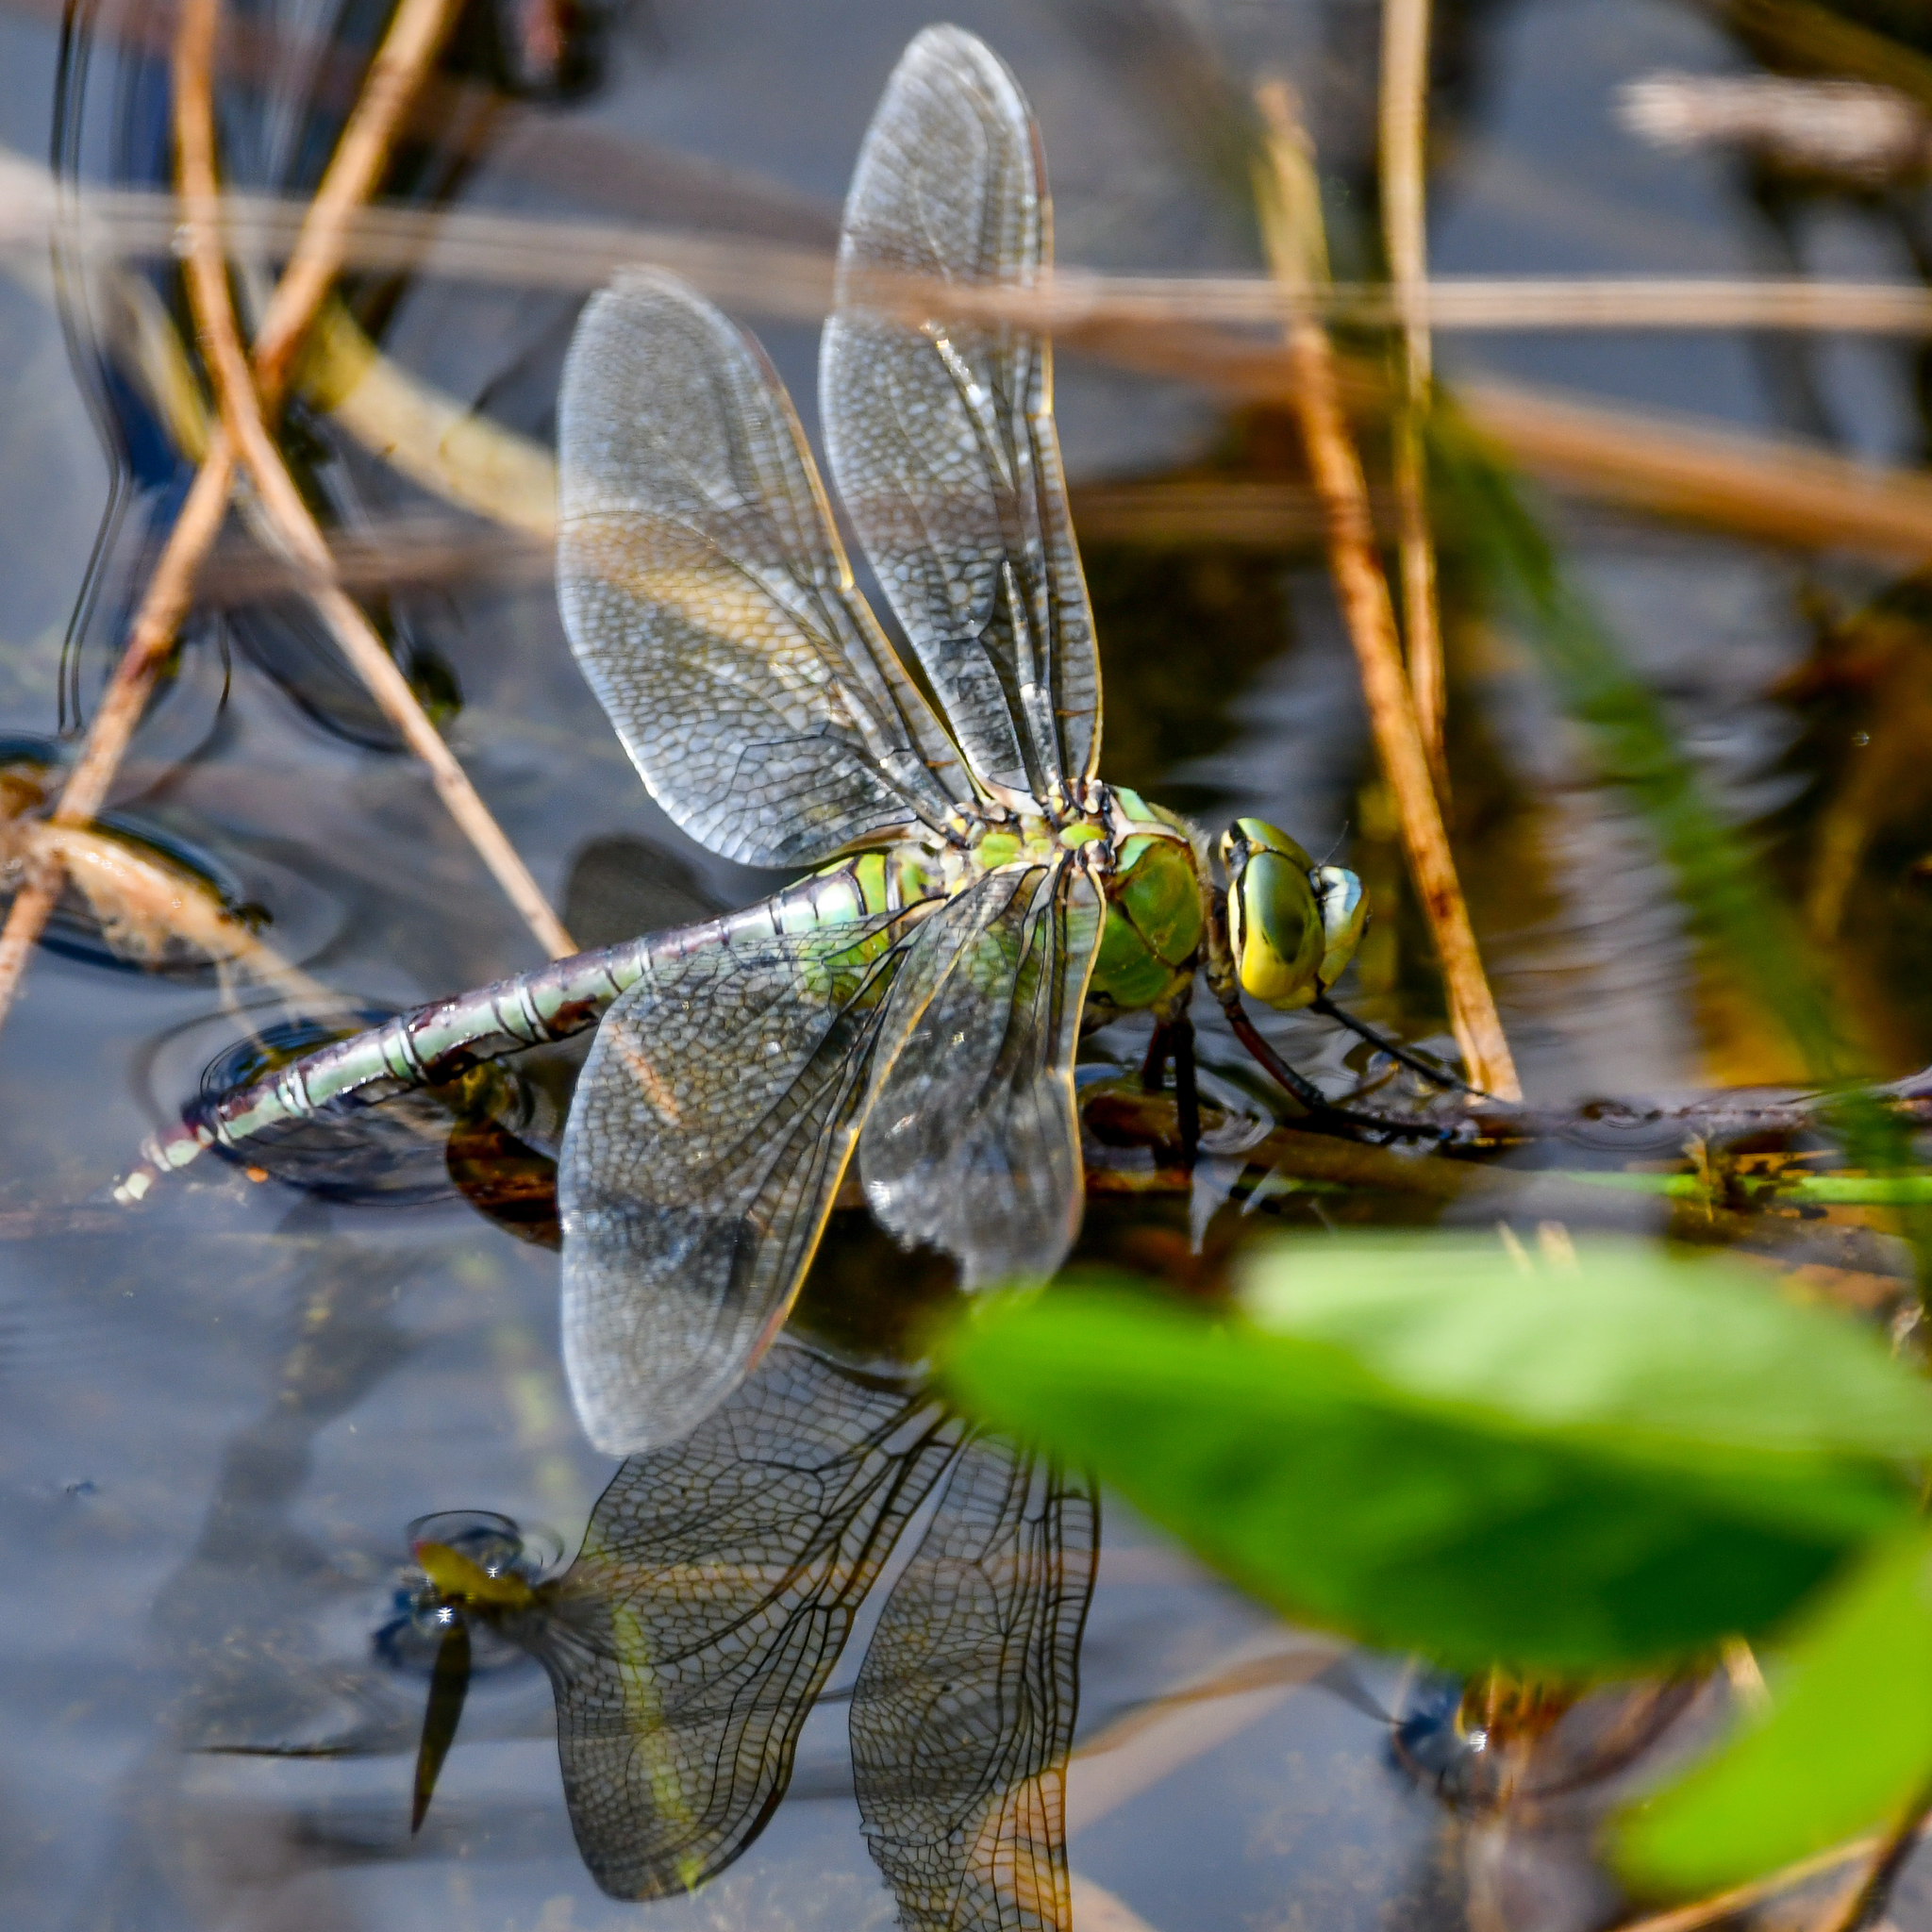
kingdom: Animalia
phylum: Arthropoda
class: Insecta
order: Odonata
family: Aeshnidae
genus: Anax
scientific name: Anax imperator
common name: Emperor dragonfly
